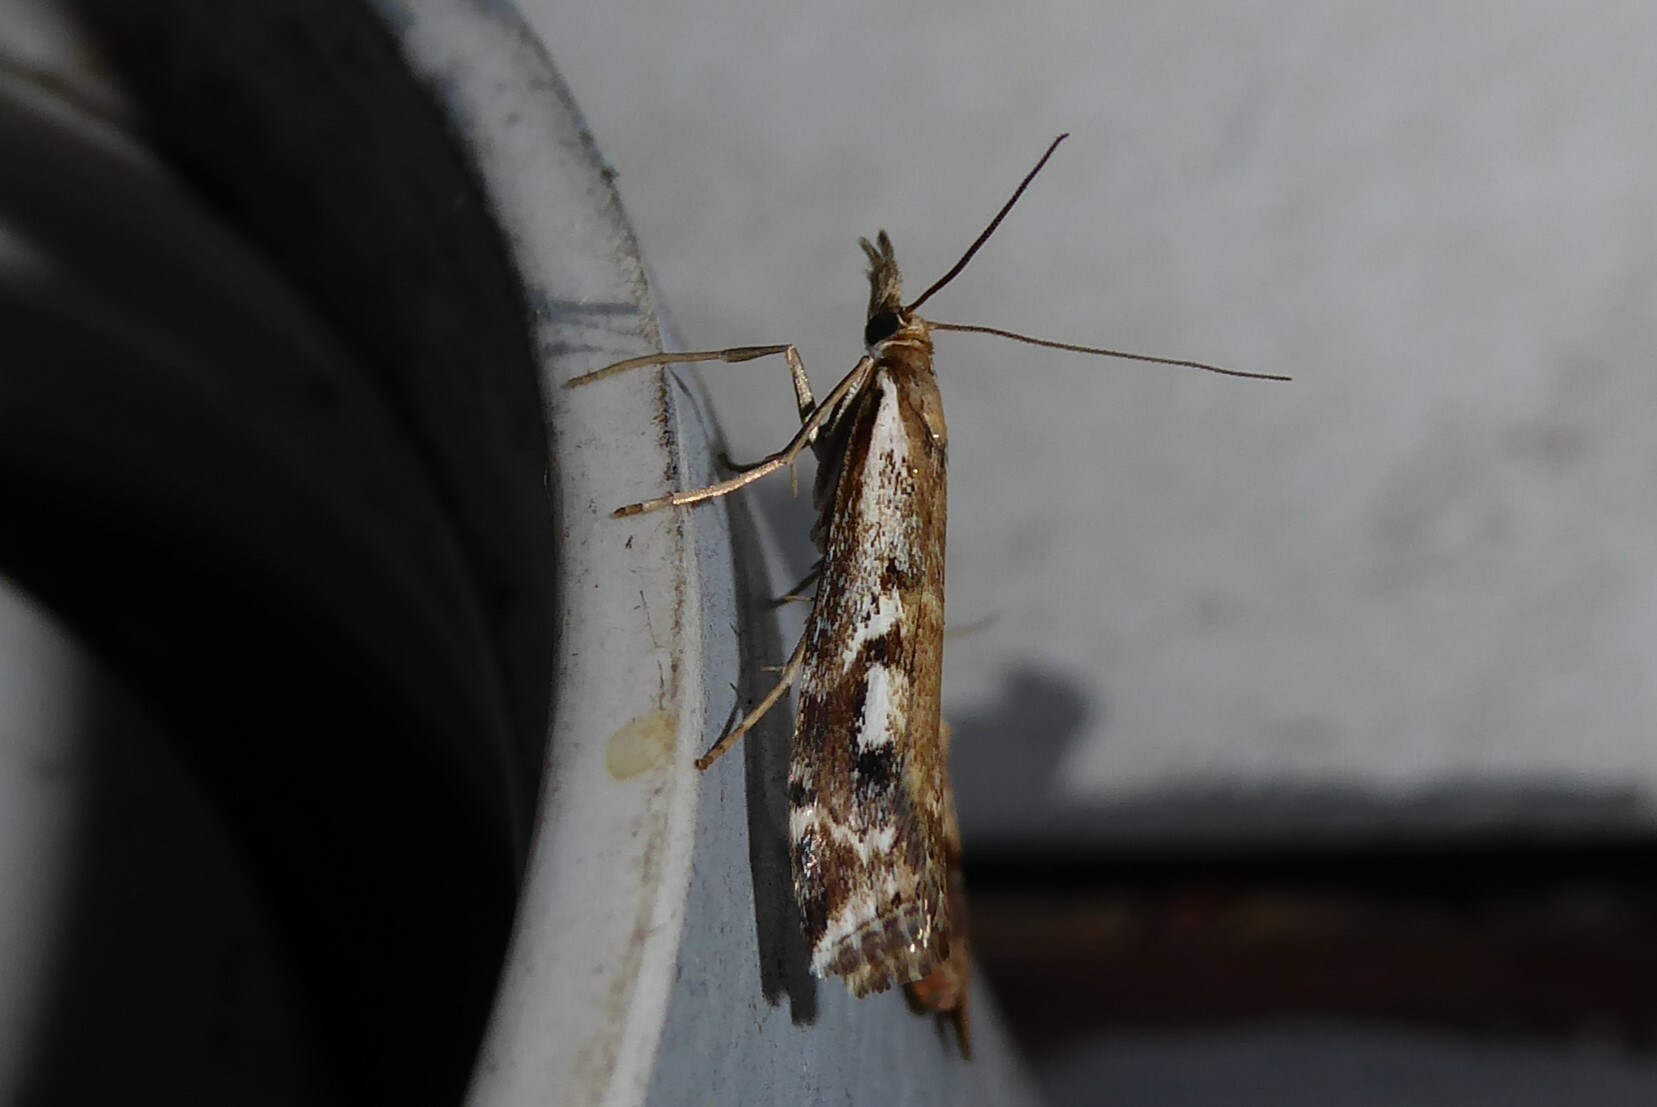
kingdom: Animalia
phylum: Arthropoda
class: Insecta
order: Lepidoptera
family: Crambidae
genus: Orocrambus
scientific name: Orocrambus vulgaris
